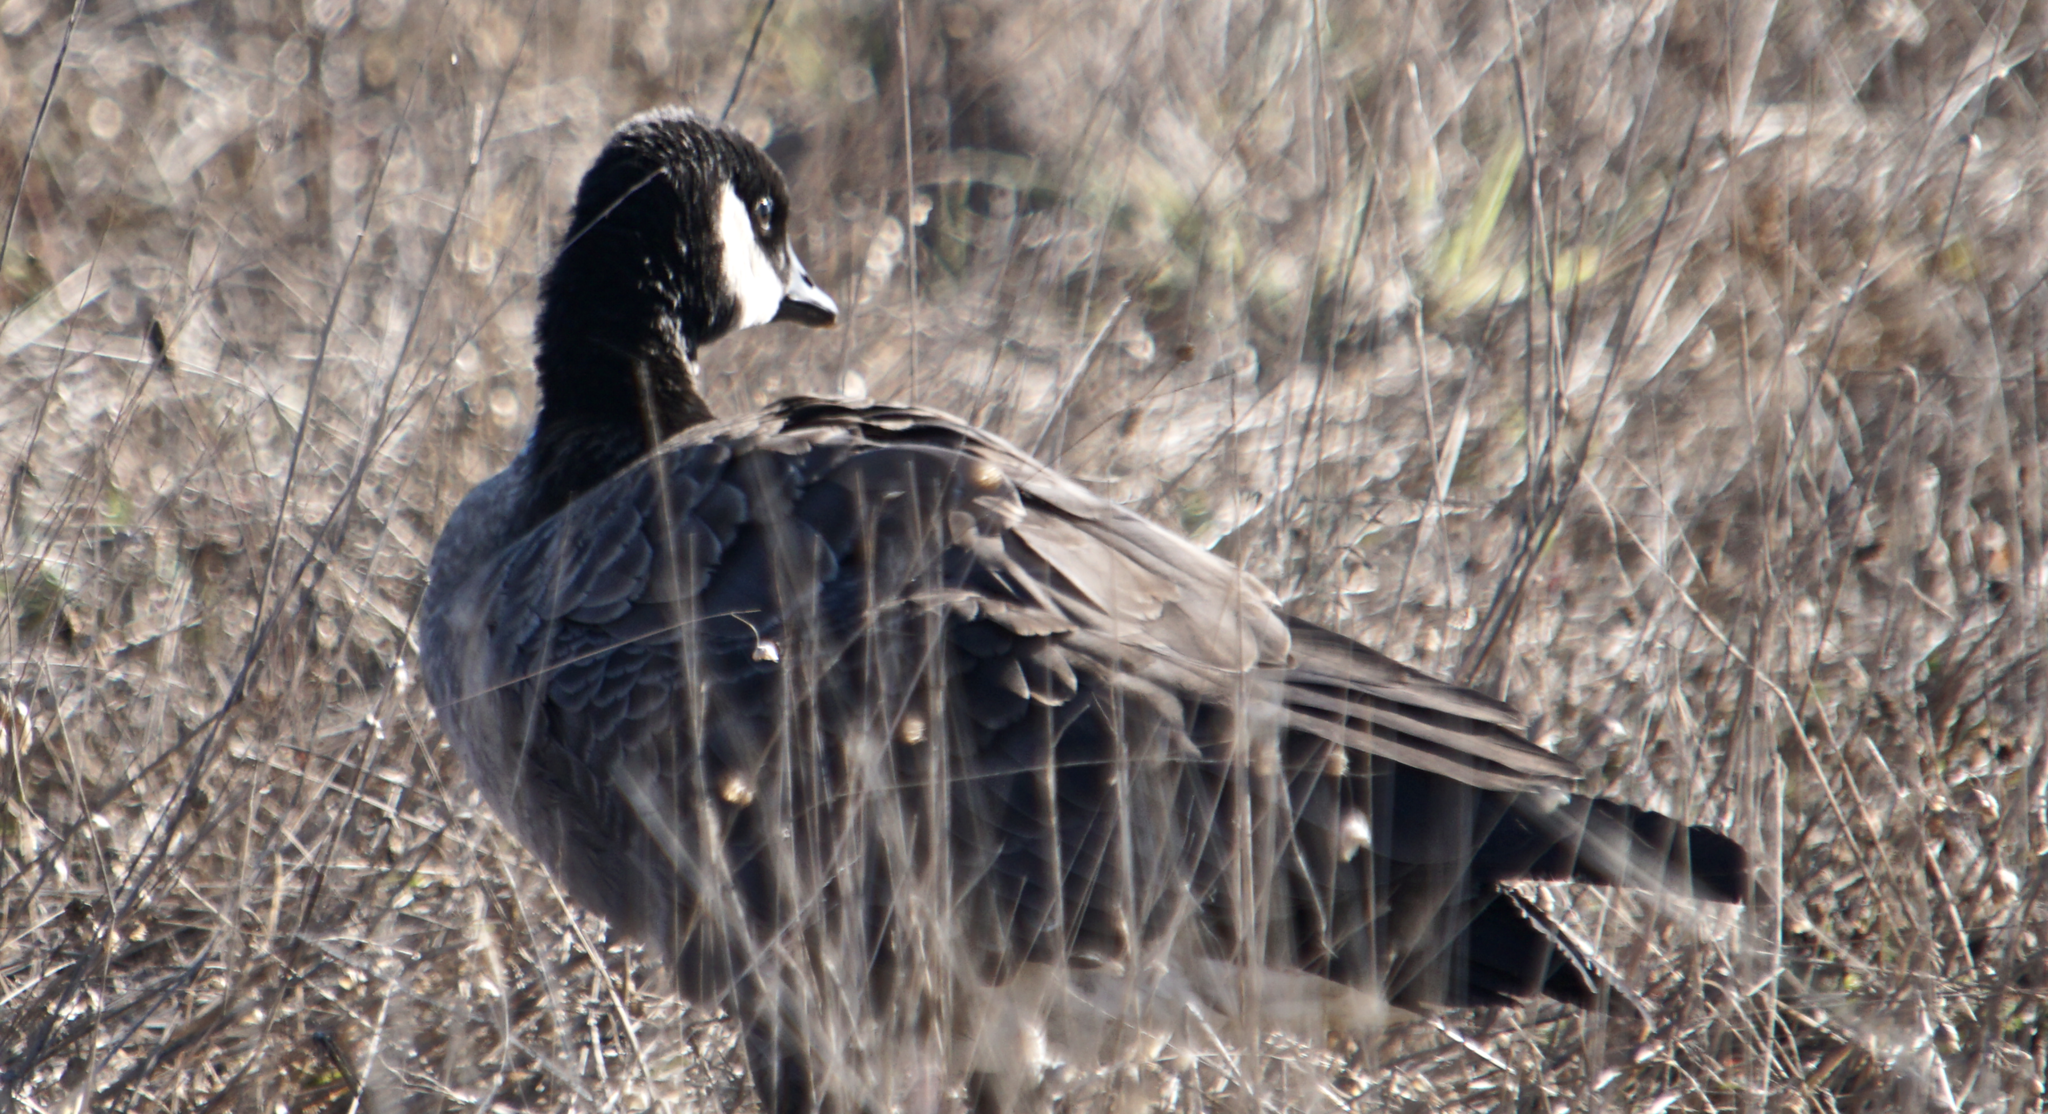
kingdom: Animalia
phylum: Chordata
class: Aves
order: Anseriformes
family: Anatidae
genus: Branta
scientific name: Branta hutchinsii
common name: Cackling goose
